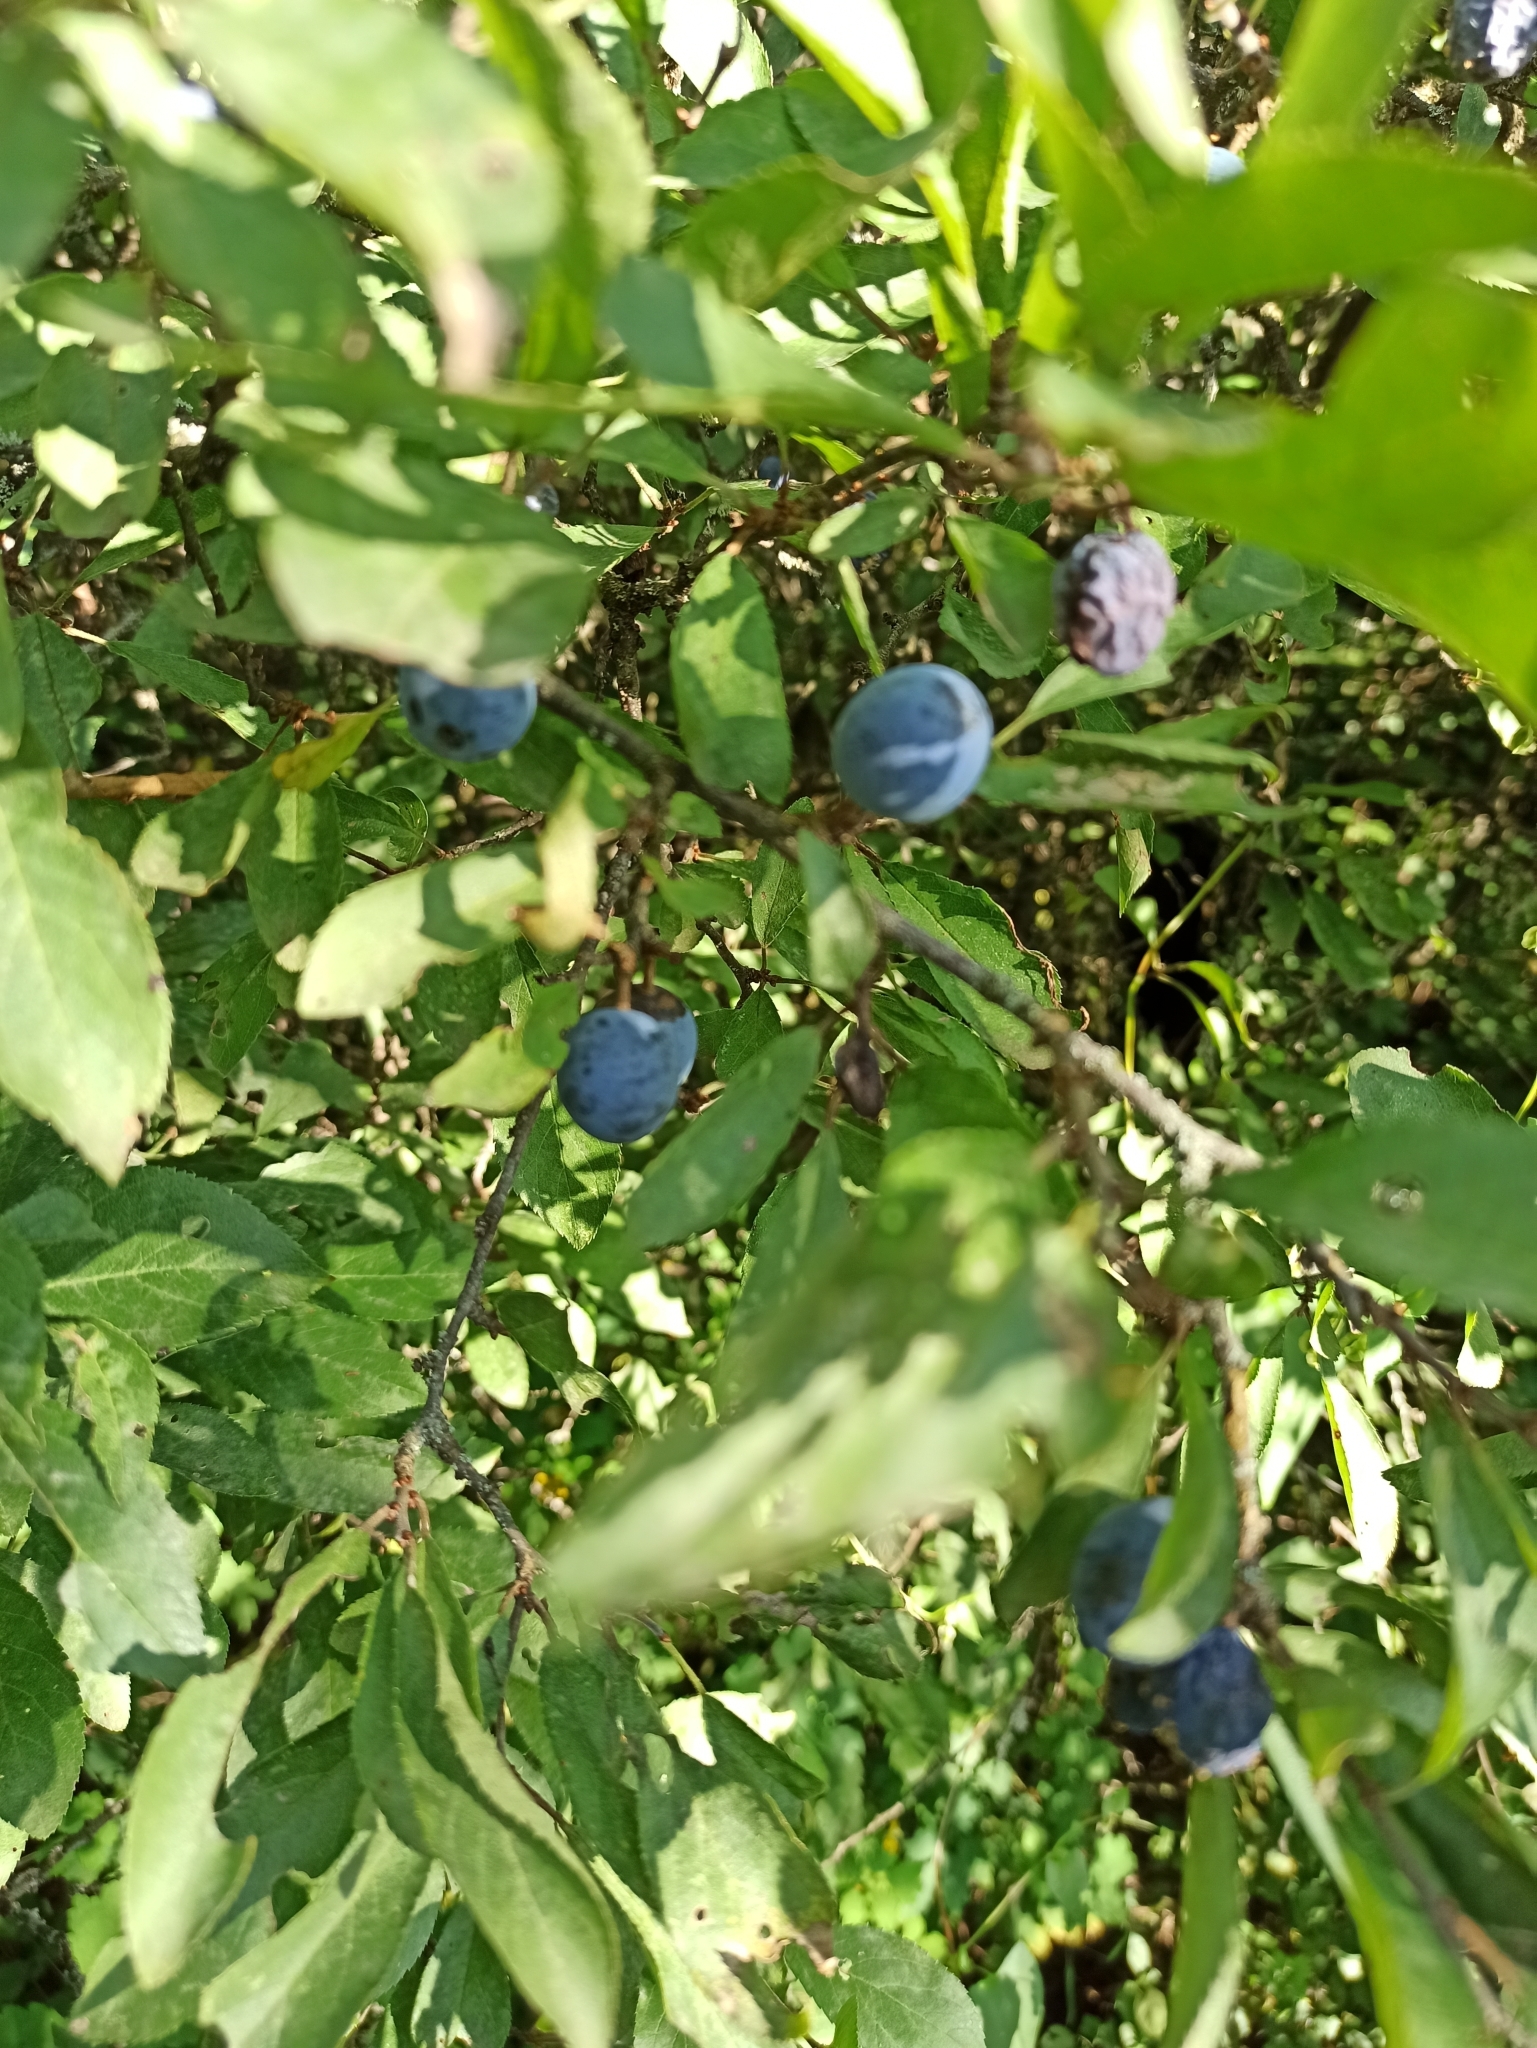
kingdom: Plantae
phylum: Tracheophyta
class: Magnoliopsida
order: Rosales
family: Rosaceae
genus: Prunus
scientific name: Prunus spinosa
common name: Blackthorn
